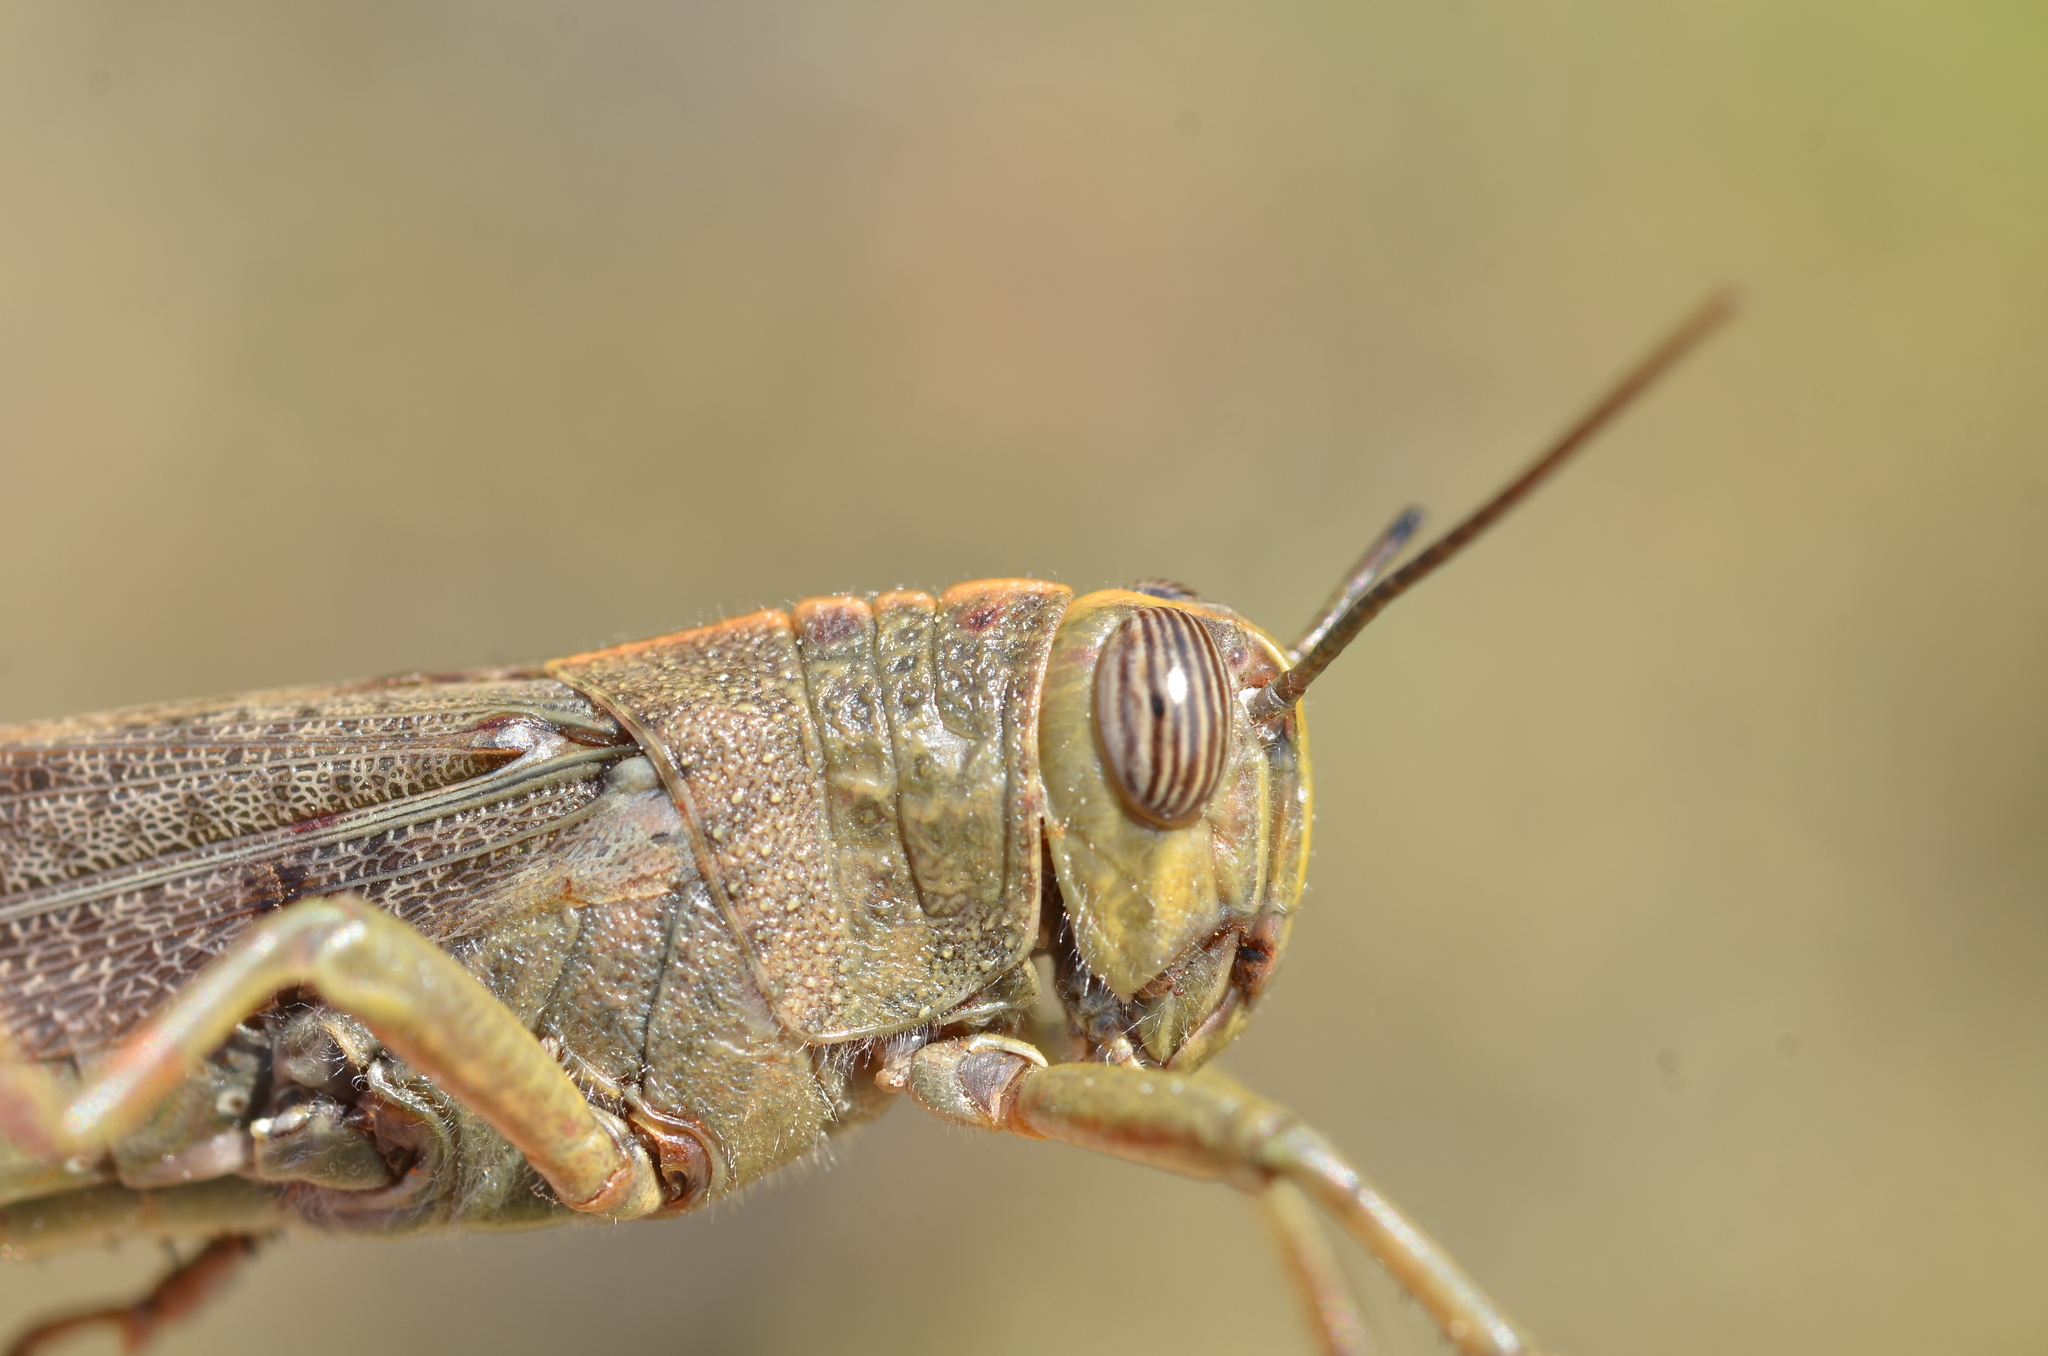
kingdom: Animalia
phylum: Arthropoda
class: Insecta
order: Orthoptera
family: Acrididae
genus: Anacridium
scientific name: Anacridium aegyptium
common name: Egyptian grasshopper
